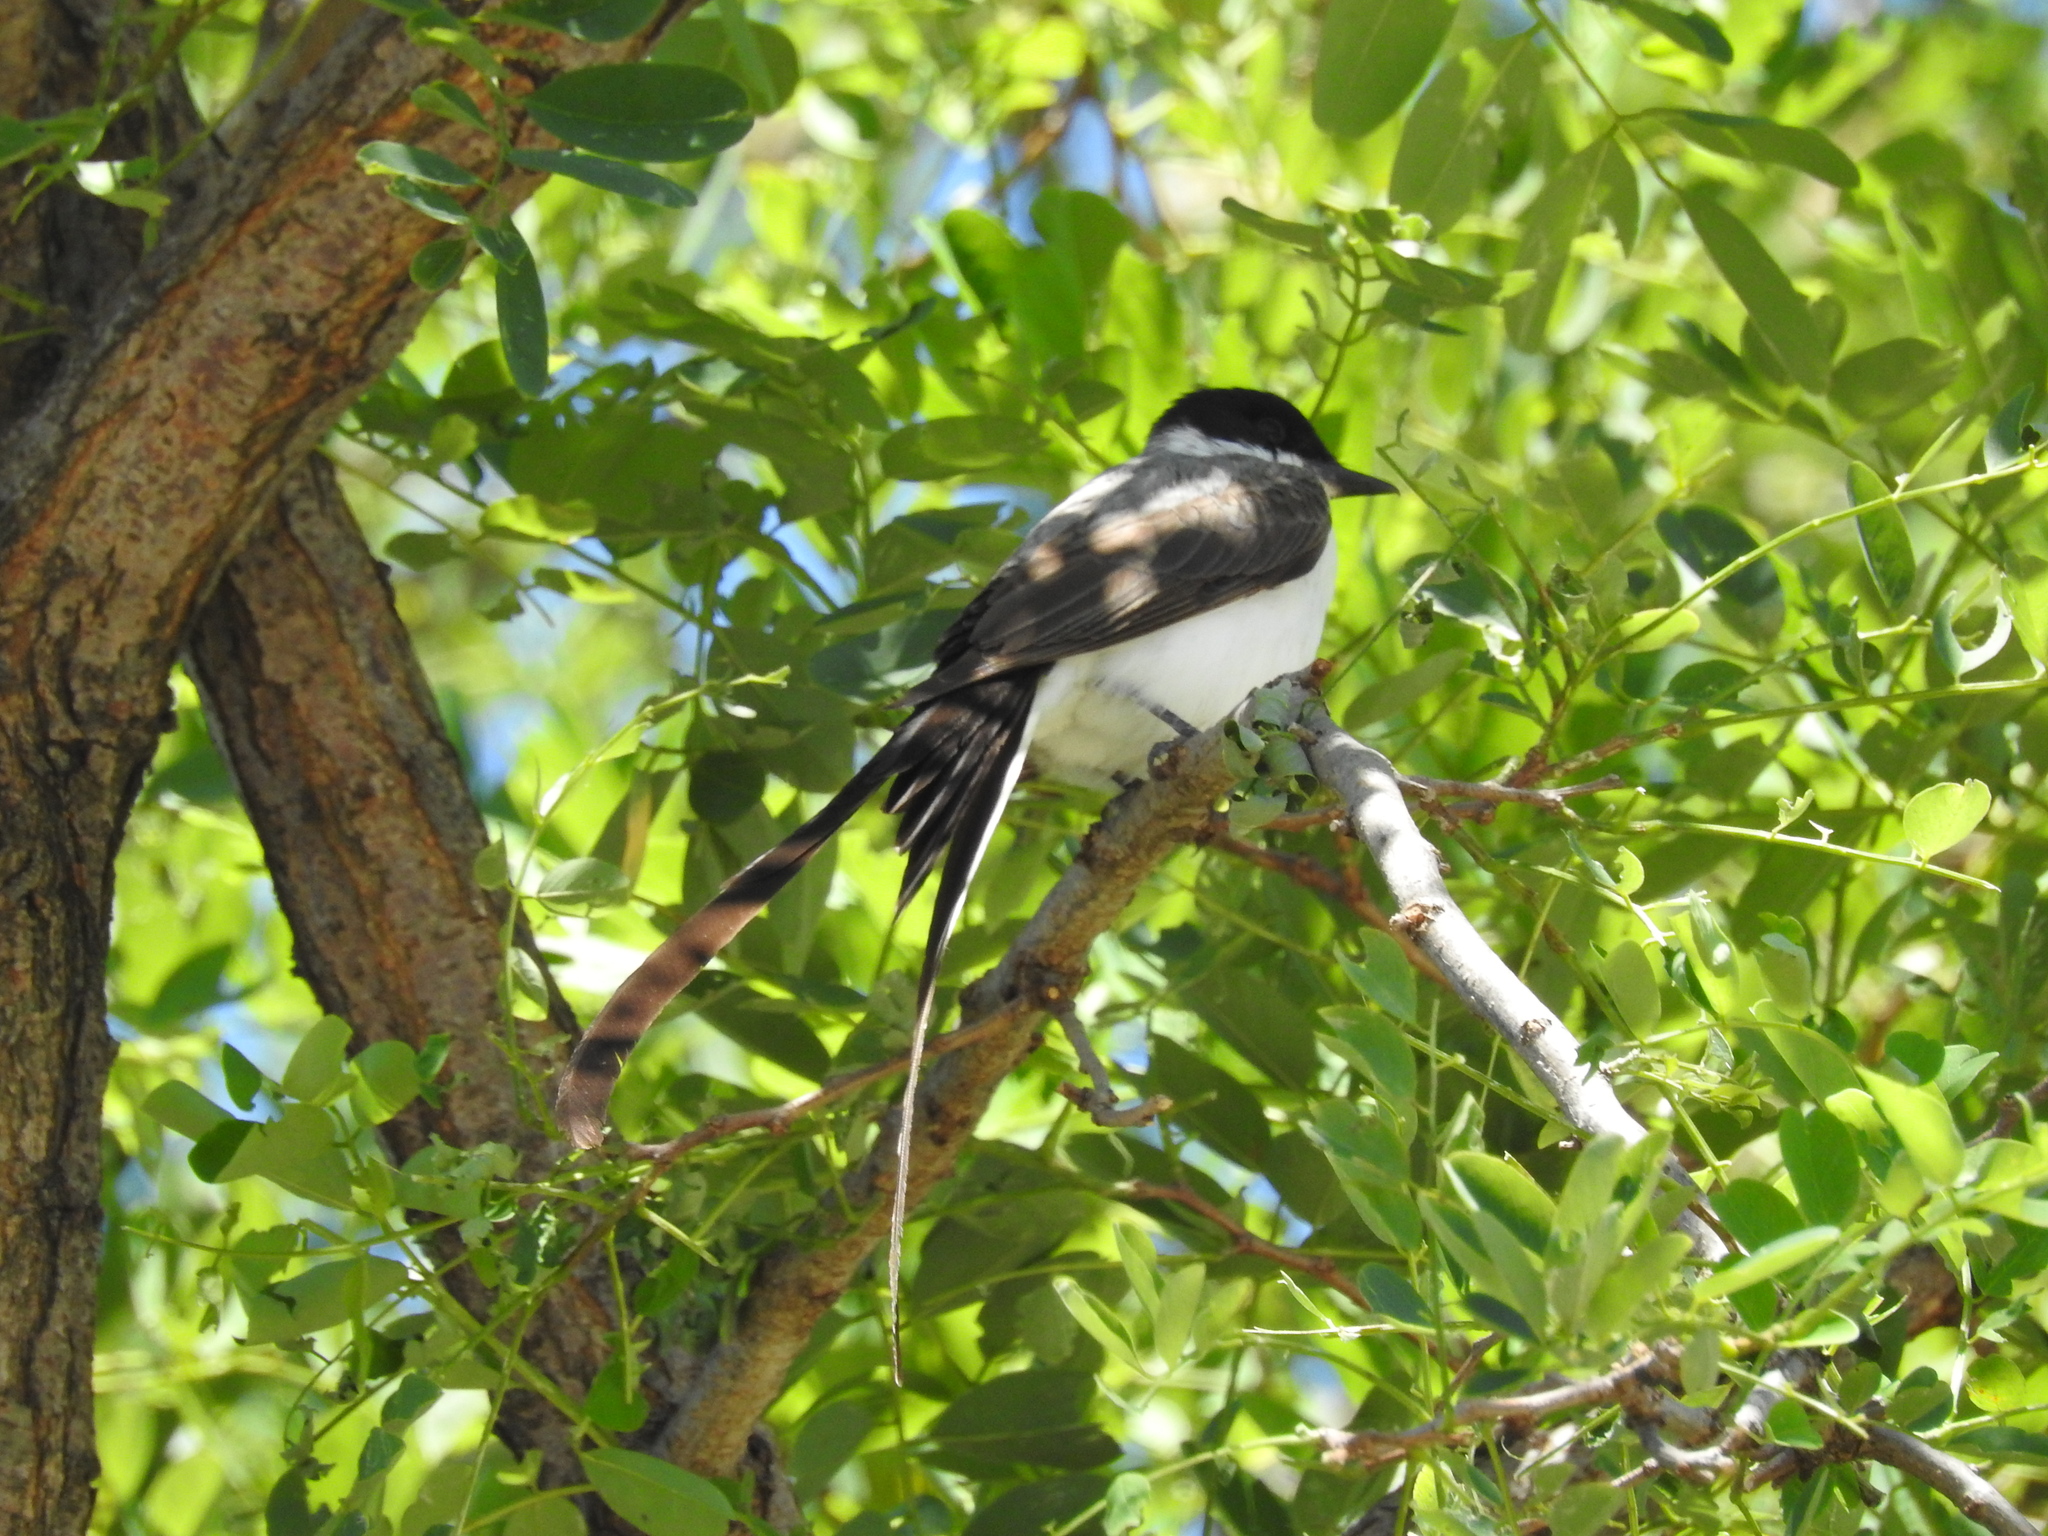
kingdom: Animalia
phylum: Chordata
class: Aves
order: Passeriformes
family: Tyrannidae
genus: Tyrannus
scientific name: Tyrannus savana
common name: Fork-tailed flycatcher
